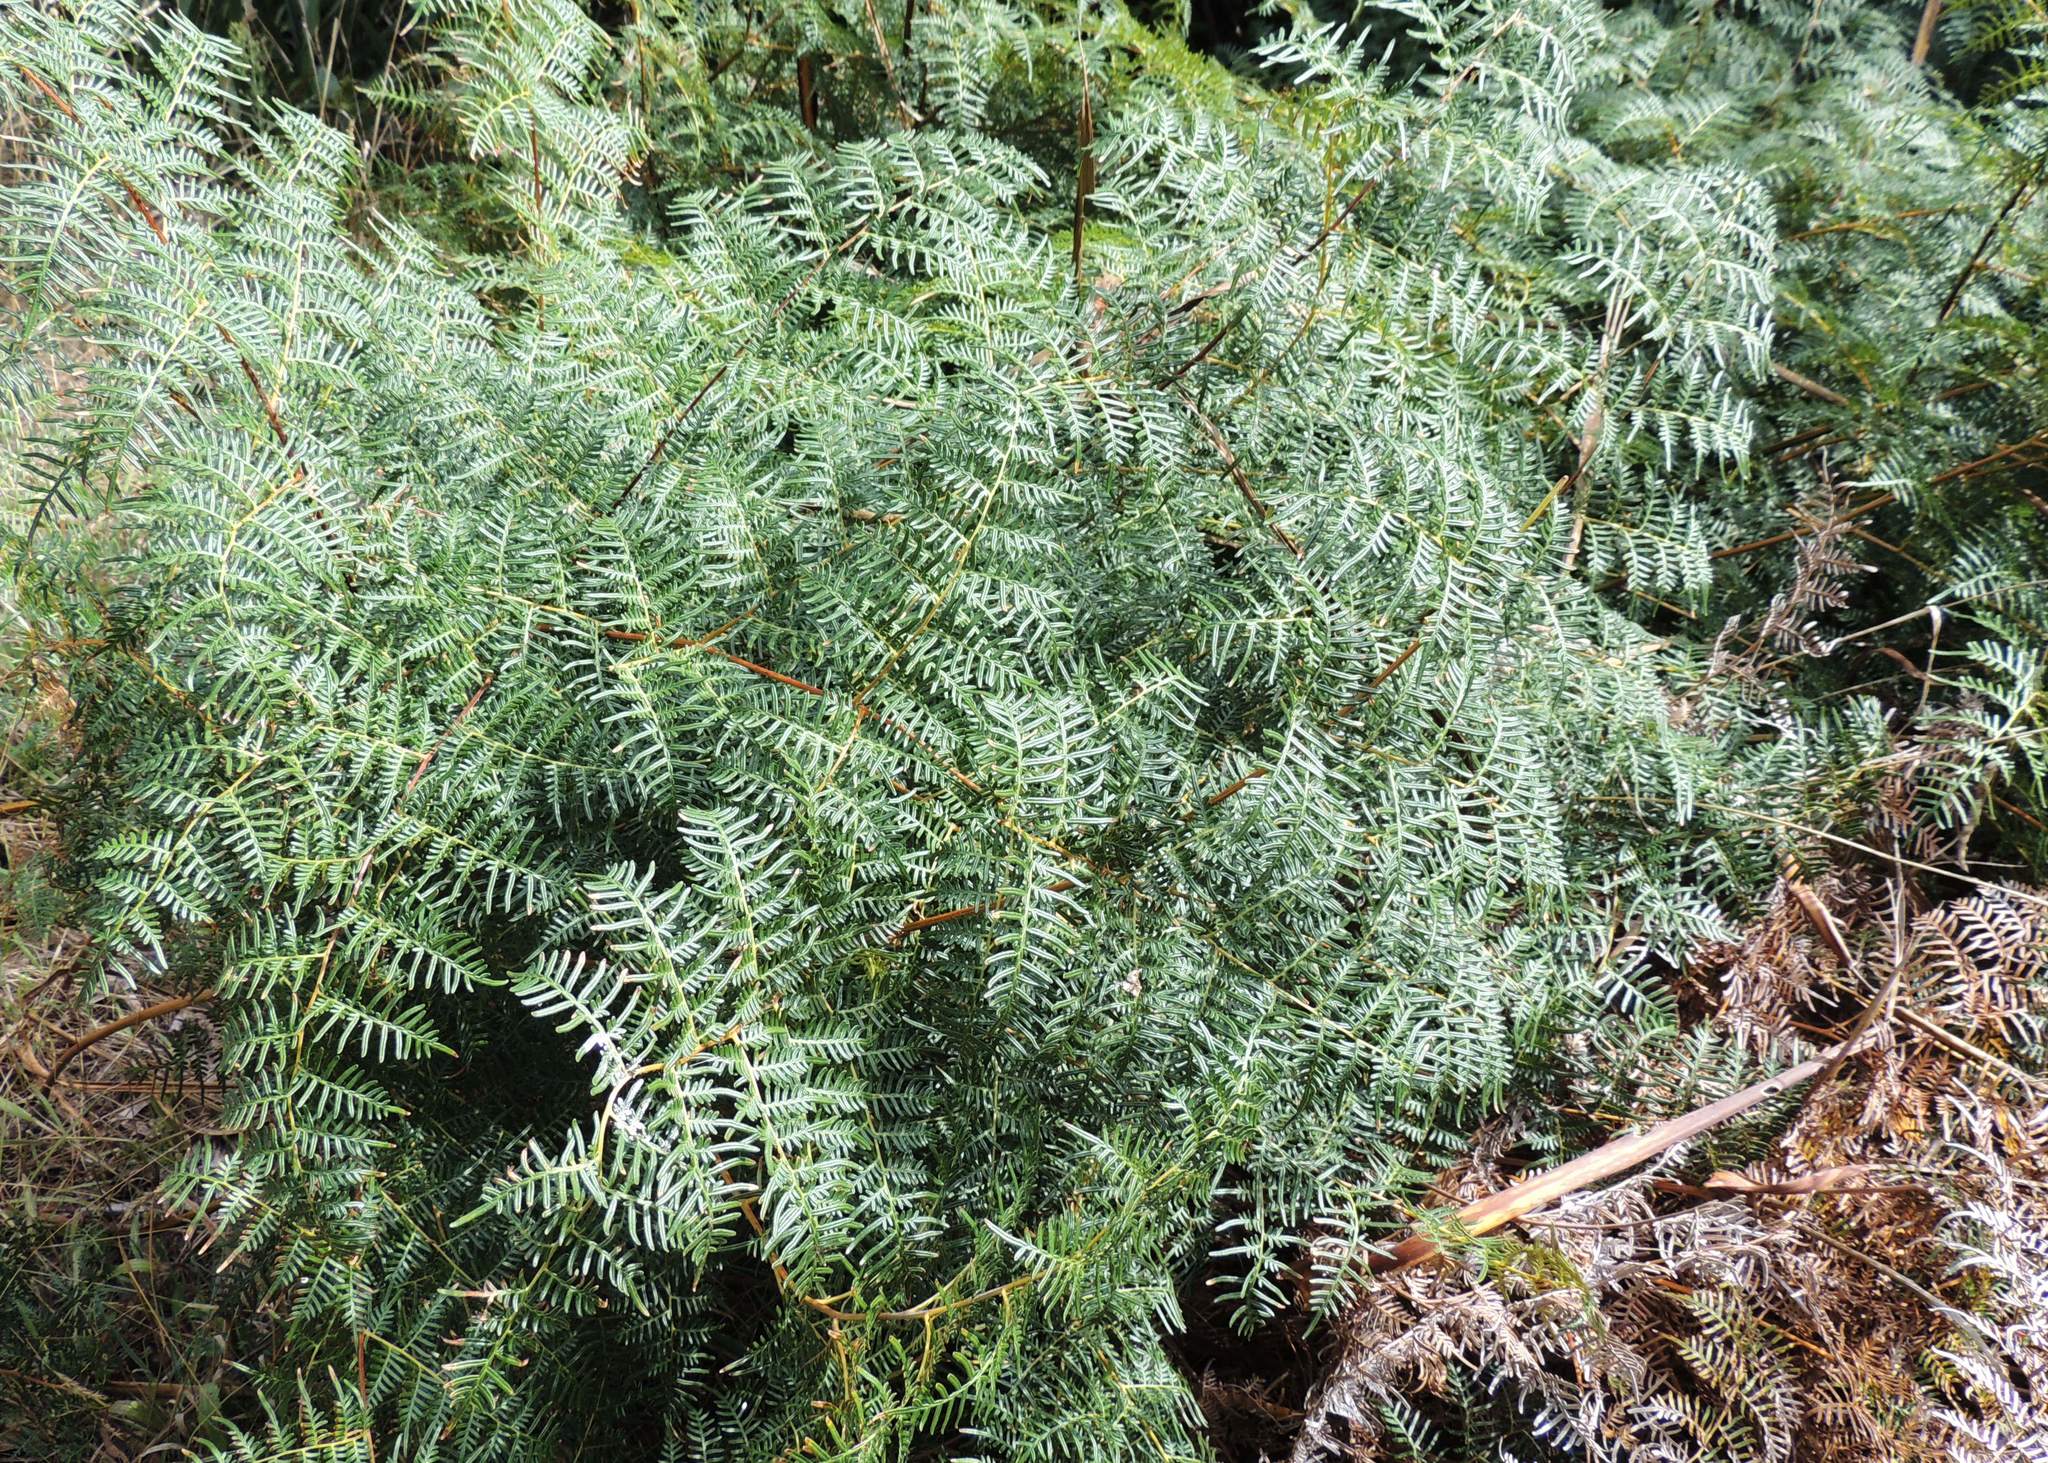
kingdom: Plantae
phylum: Tracheophyta
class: Polypodiopsida
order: Polypodiales
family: Dennstaedtiaceae
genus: Pteridium
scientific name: Pteridium esculentum
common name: Bracken fern
